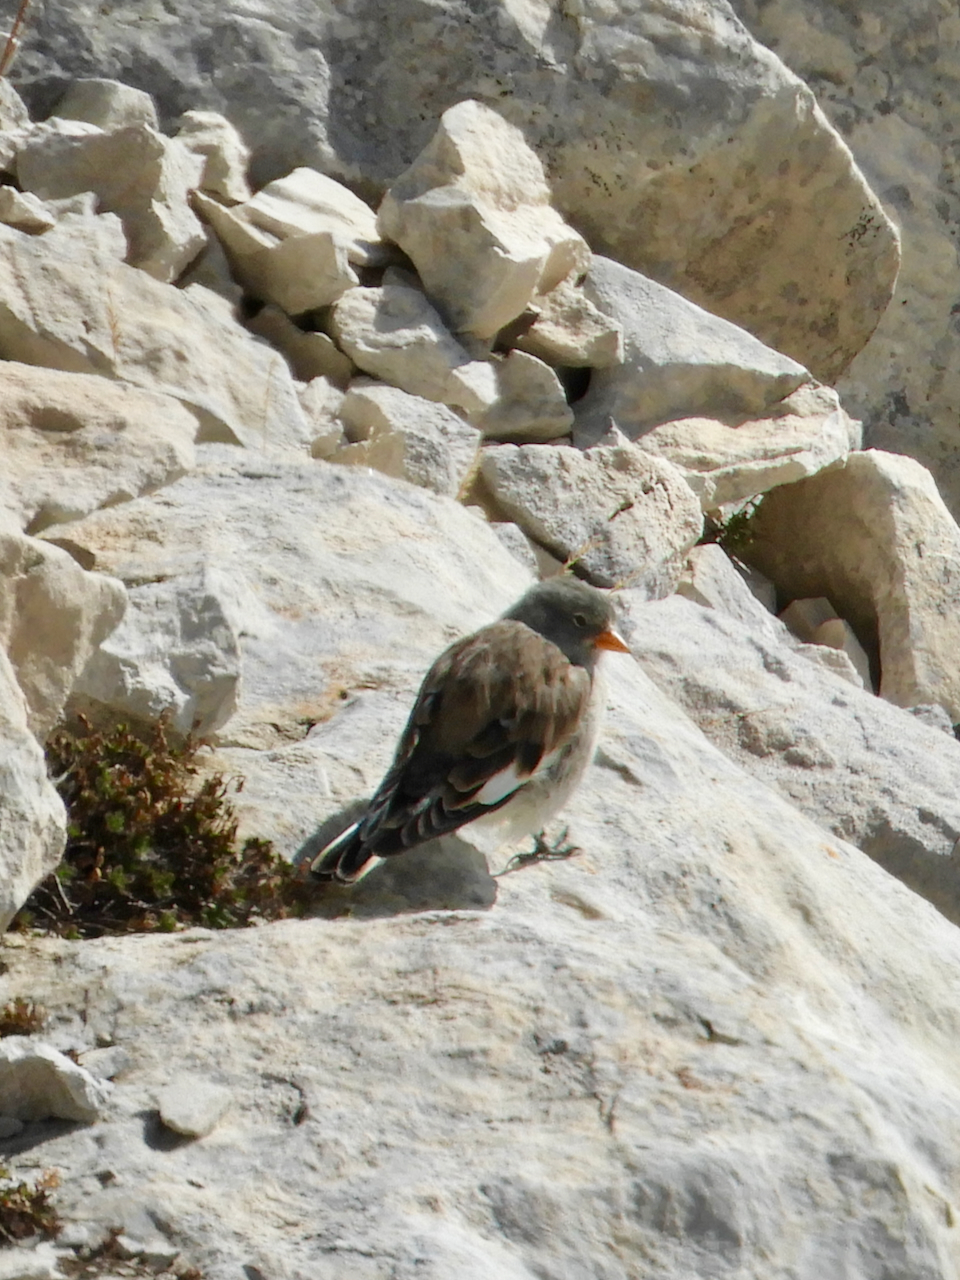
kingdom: Animalia
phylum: Chordata
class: Aves
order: Passeriformes
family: Passeridae
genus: Montifringilla
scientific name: Montifringilla nivalis
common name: White-winged snowfinch
